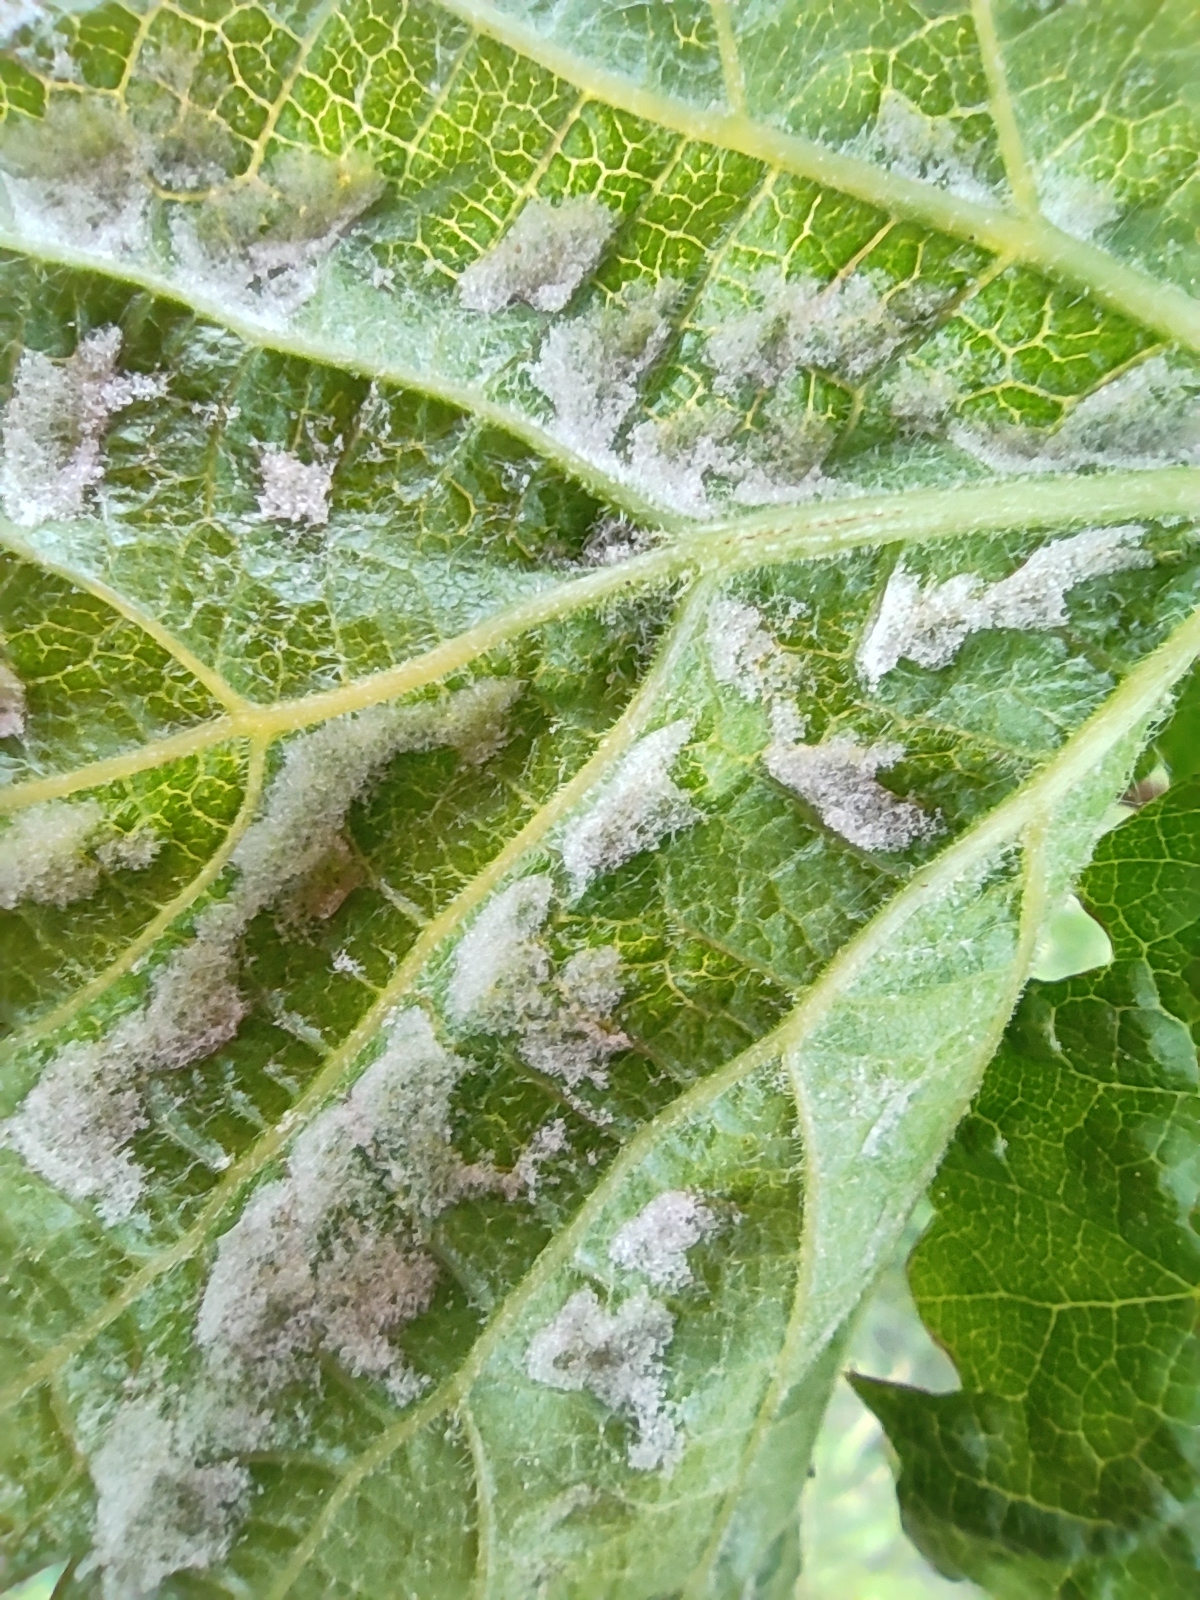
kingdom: Animalia
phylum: Arthropoda
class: Arachnida
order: Trombidiformes
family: Eriophyidae
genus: Colomerus
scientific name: Colomerus vitis
